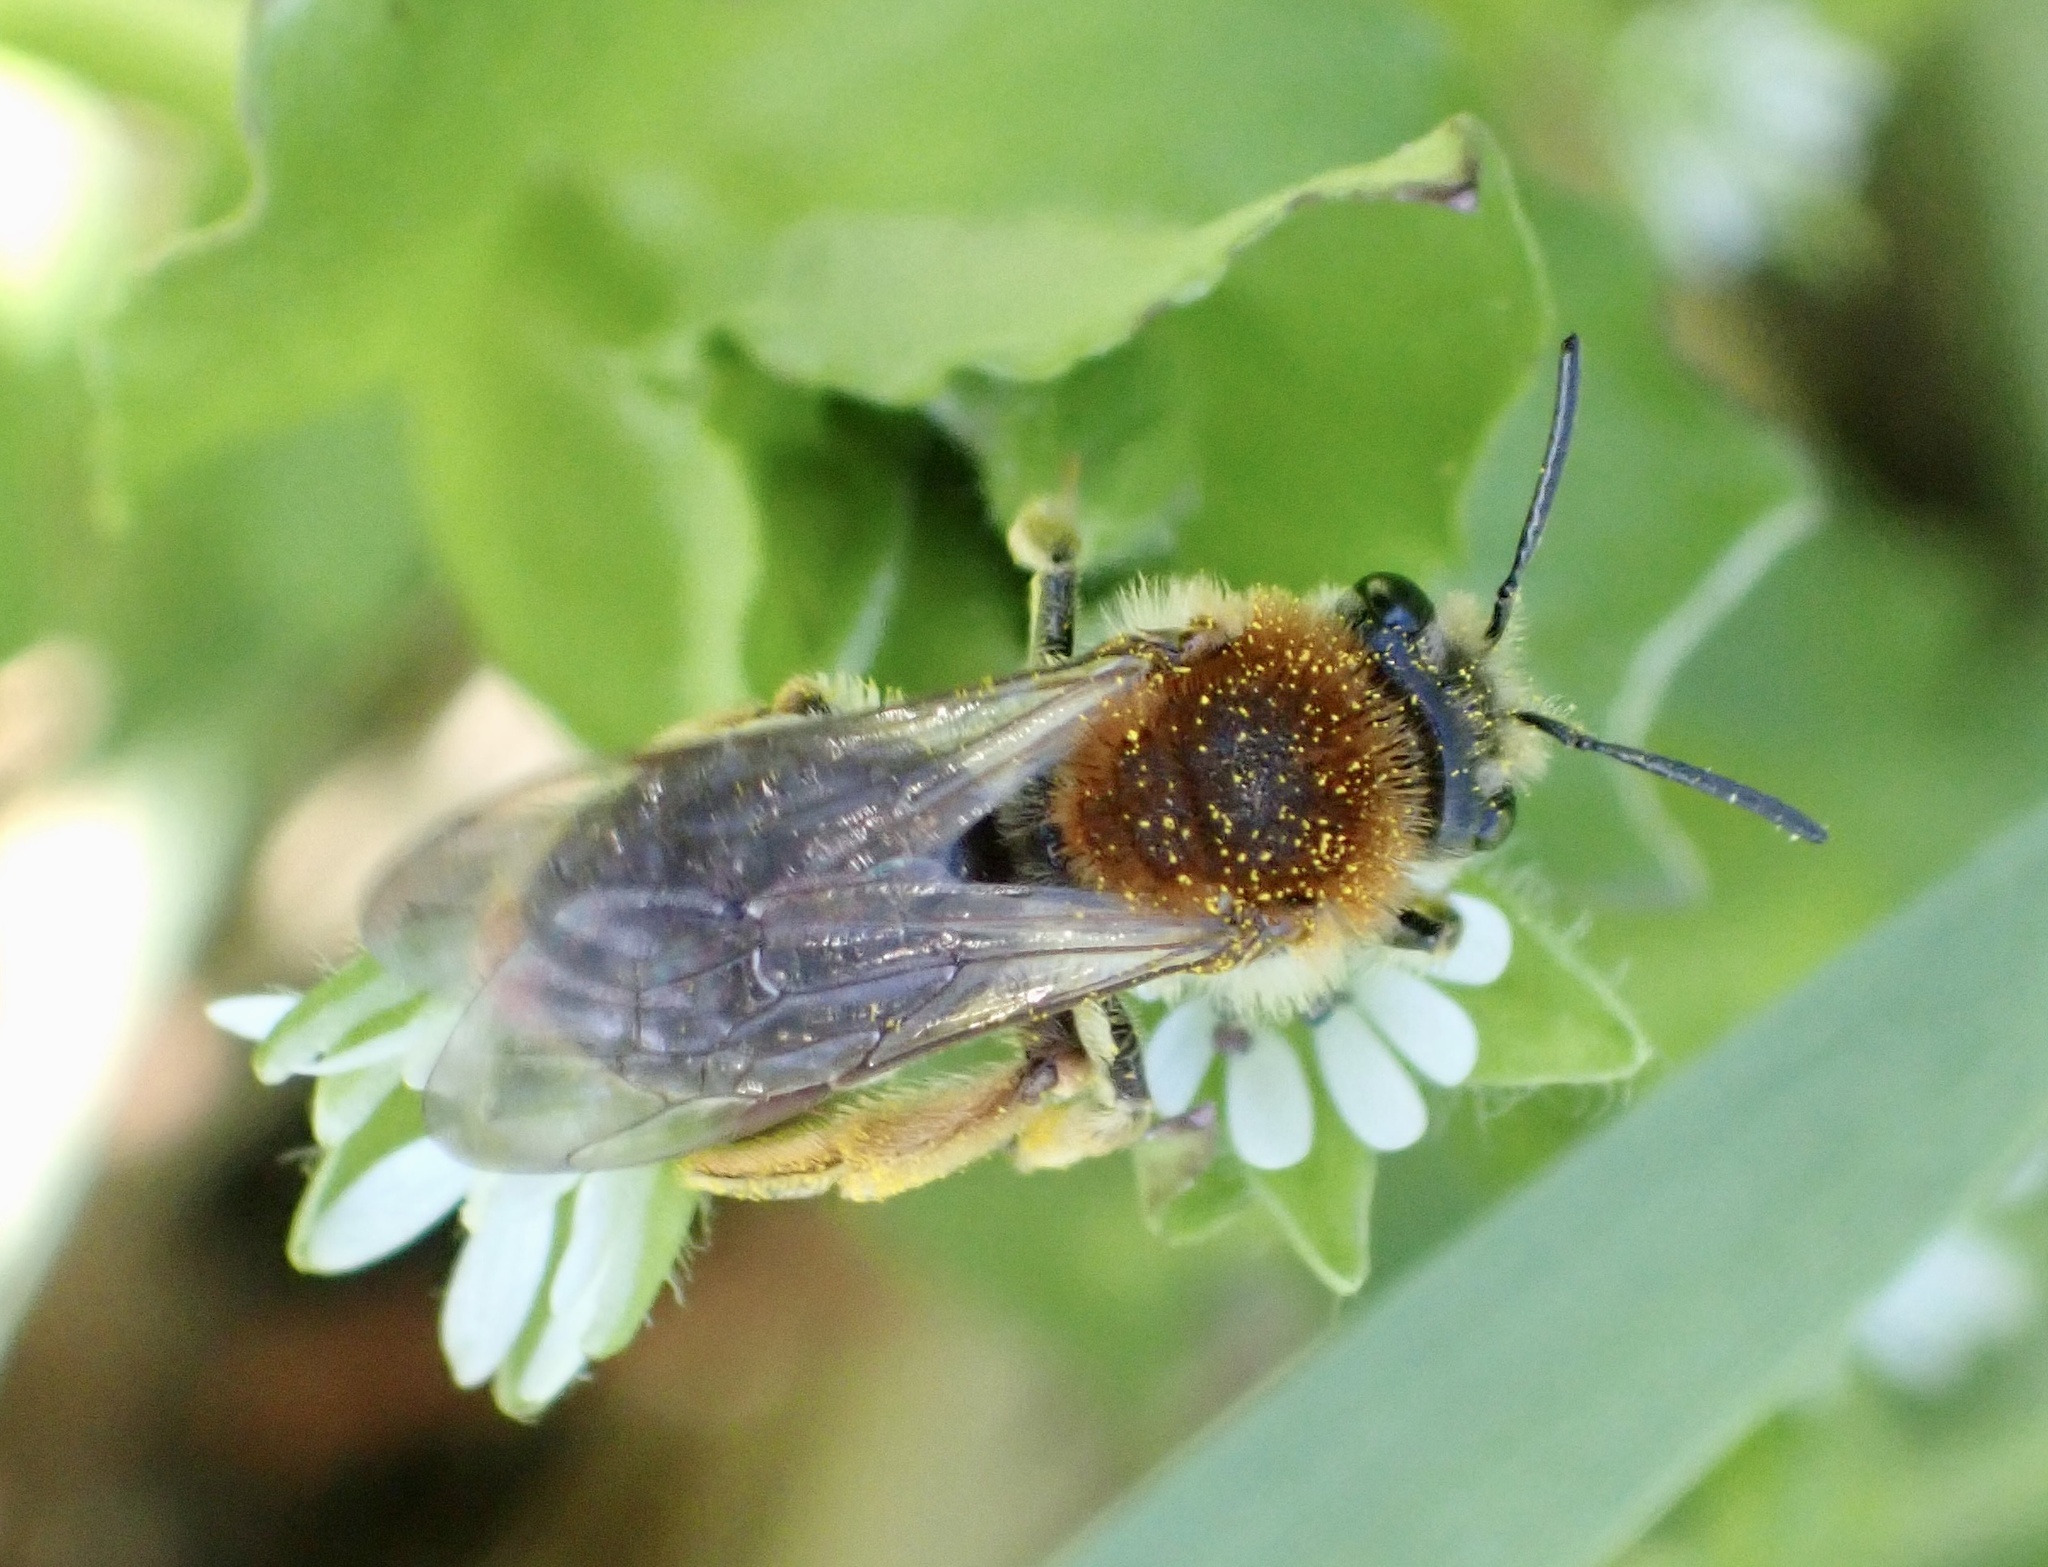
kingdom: Animalia
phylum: Arthropoda
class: Insecta
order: Hymenoptera
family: Andrenidae
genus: Andrena
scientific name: Andrena haemorrhoa
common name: Early mining bee
